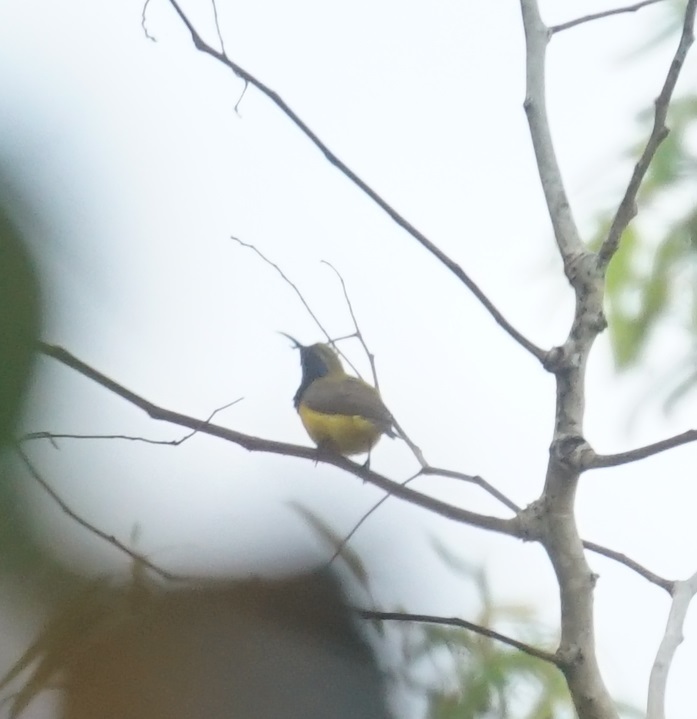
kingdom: Animalia
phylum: Chordata
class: Aves
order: Passeriformes
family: Nectariniidae
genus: Cinnyris
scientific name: Cinnyris
